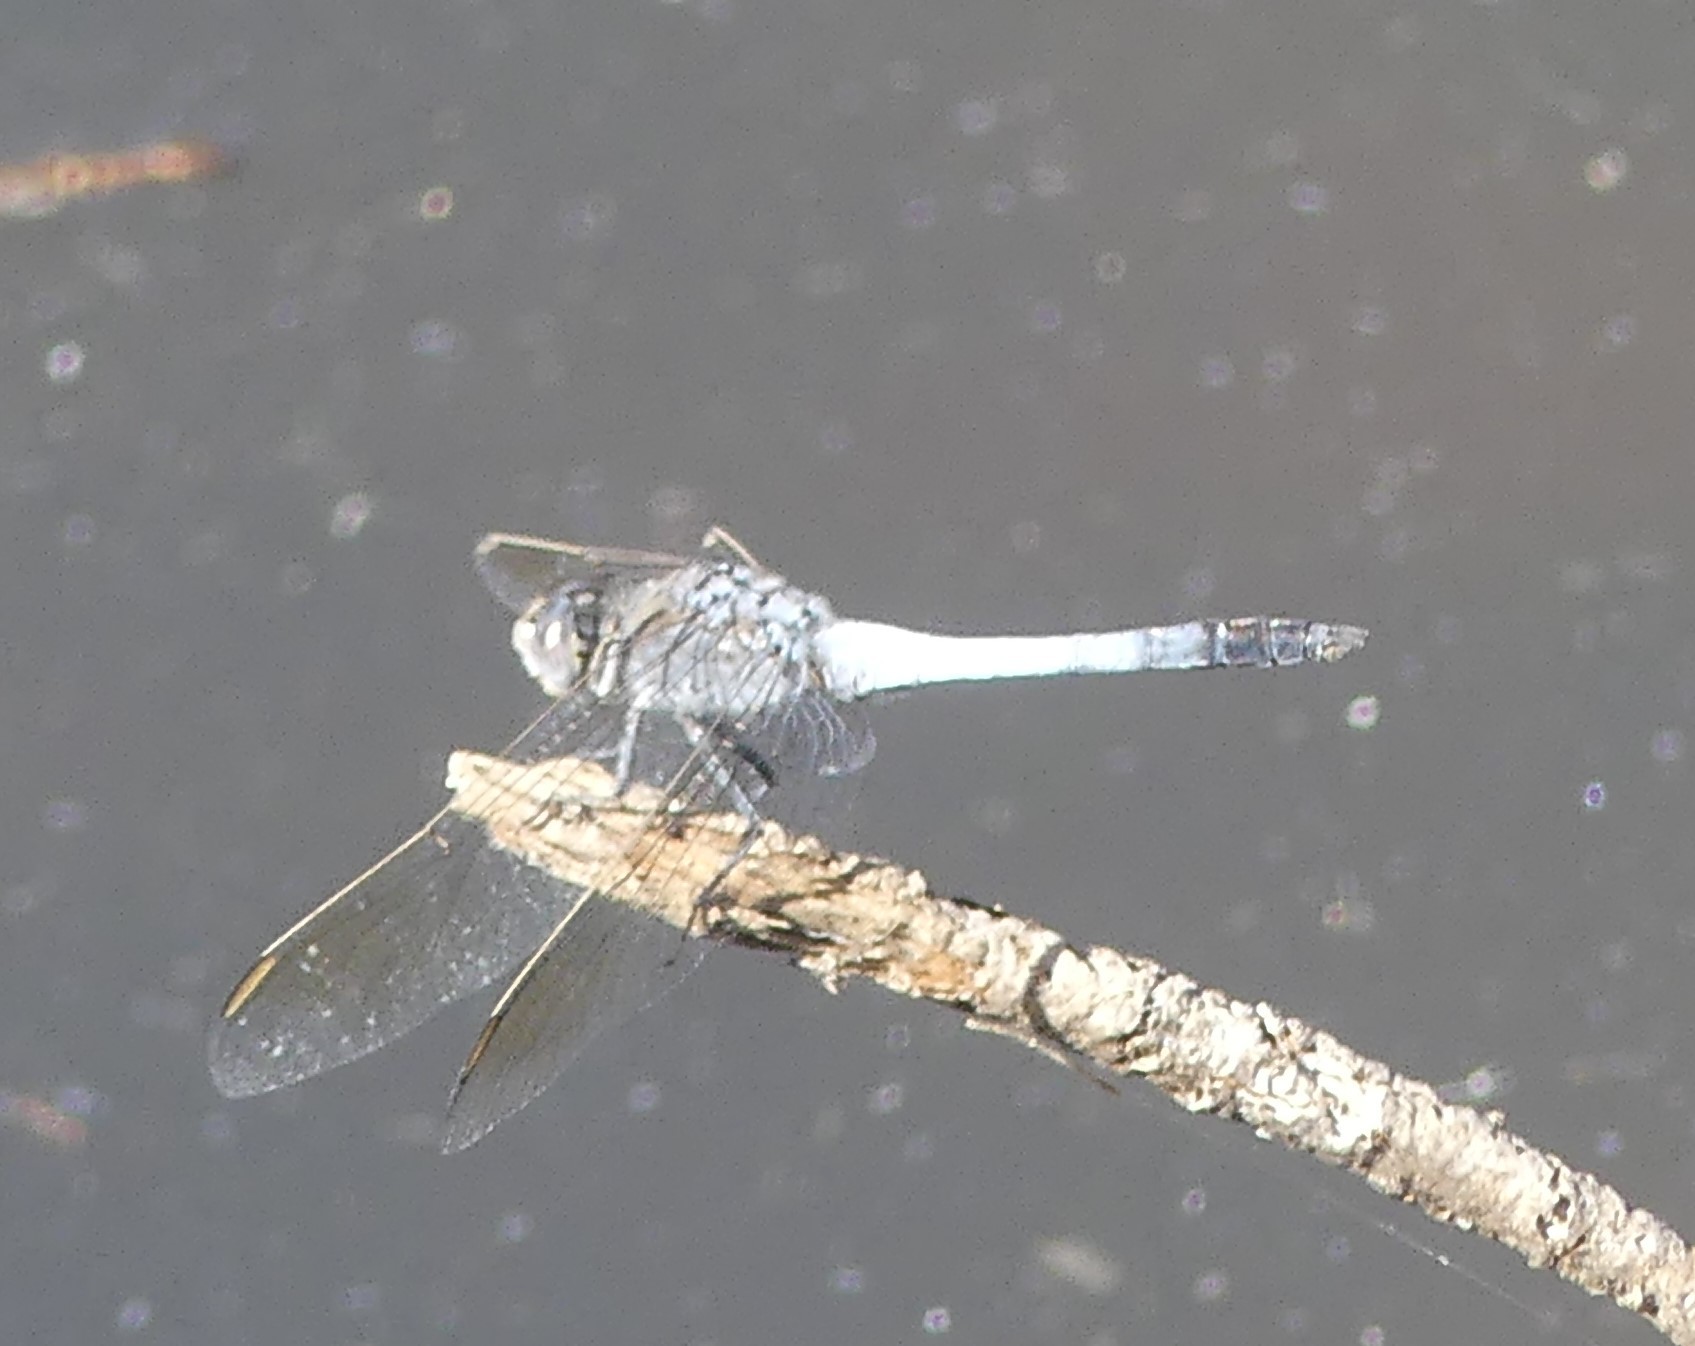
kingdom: Animalia
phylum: Arthropoda
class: Insecta
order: Odonata
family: Libellulidae
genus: Orthetrum
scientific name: Orthetrum caledonicum
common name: Blue skimmer
